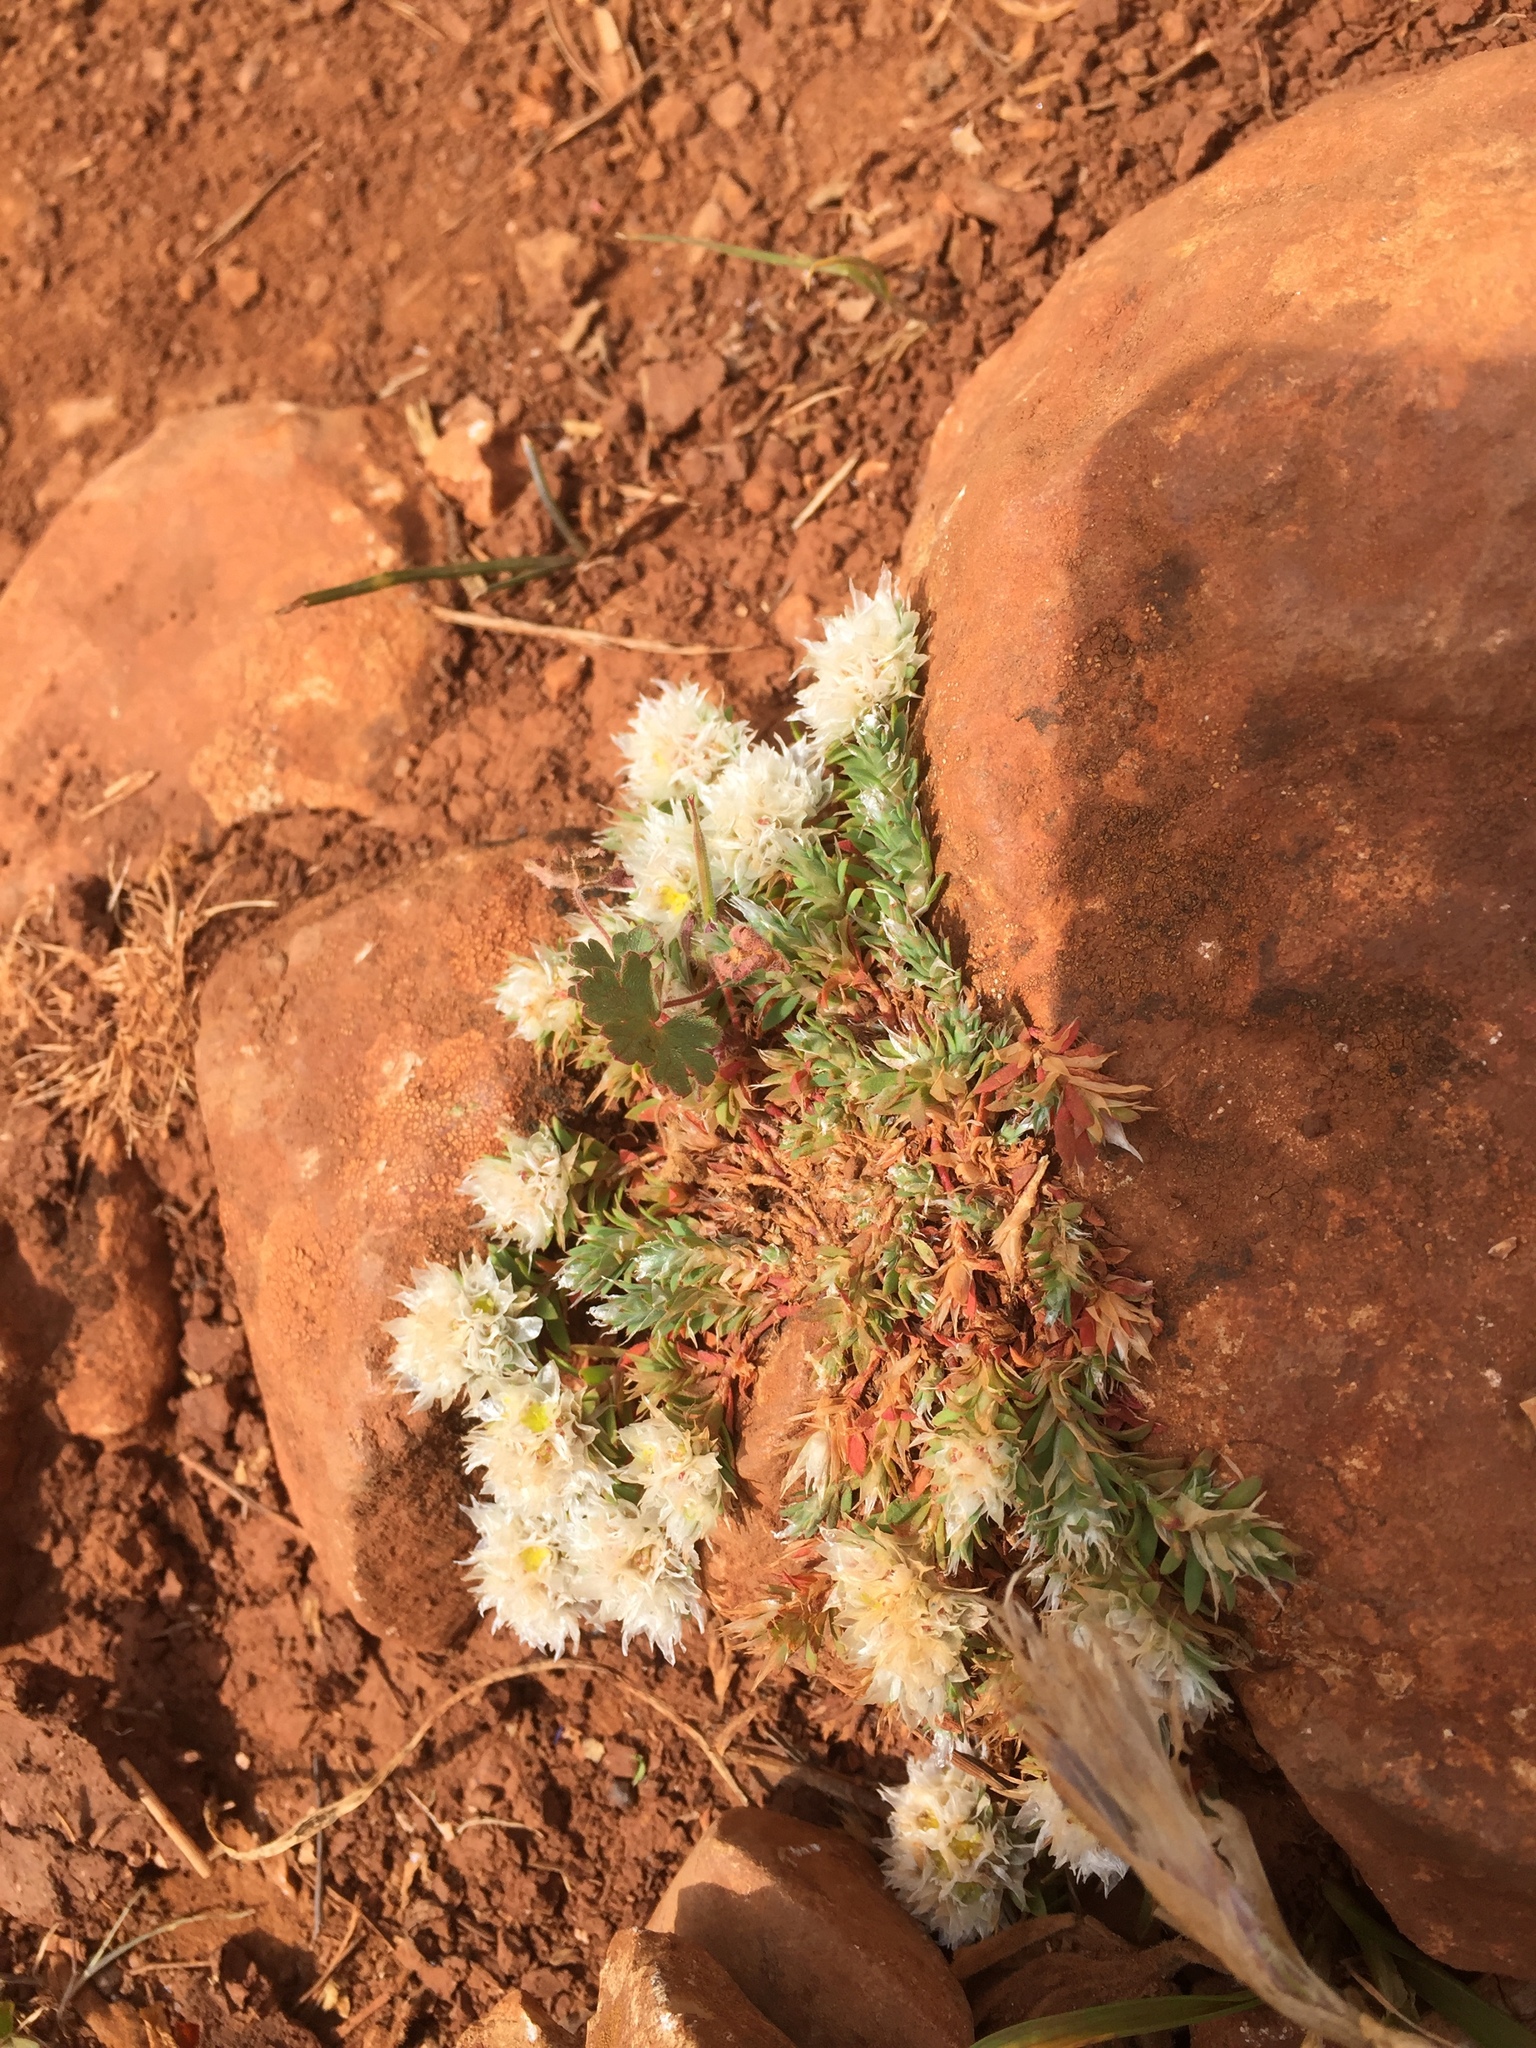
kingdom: Plantae
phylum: Tracheophyta
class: Magnoliopsida
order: Caryophyllales
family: Caryophyllaceae
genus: Paronychia
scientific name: Paronychia argentea
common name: Silver nailroot
